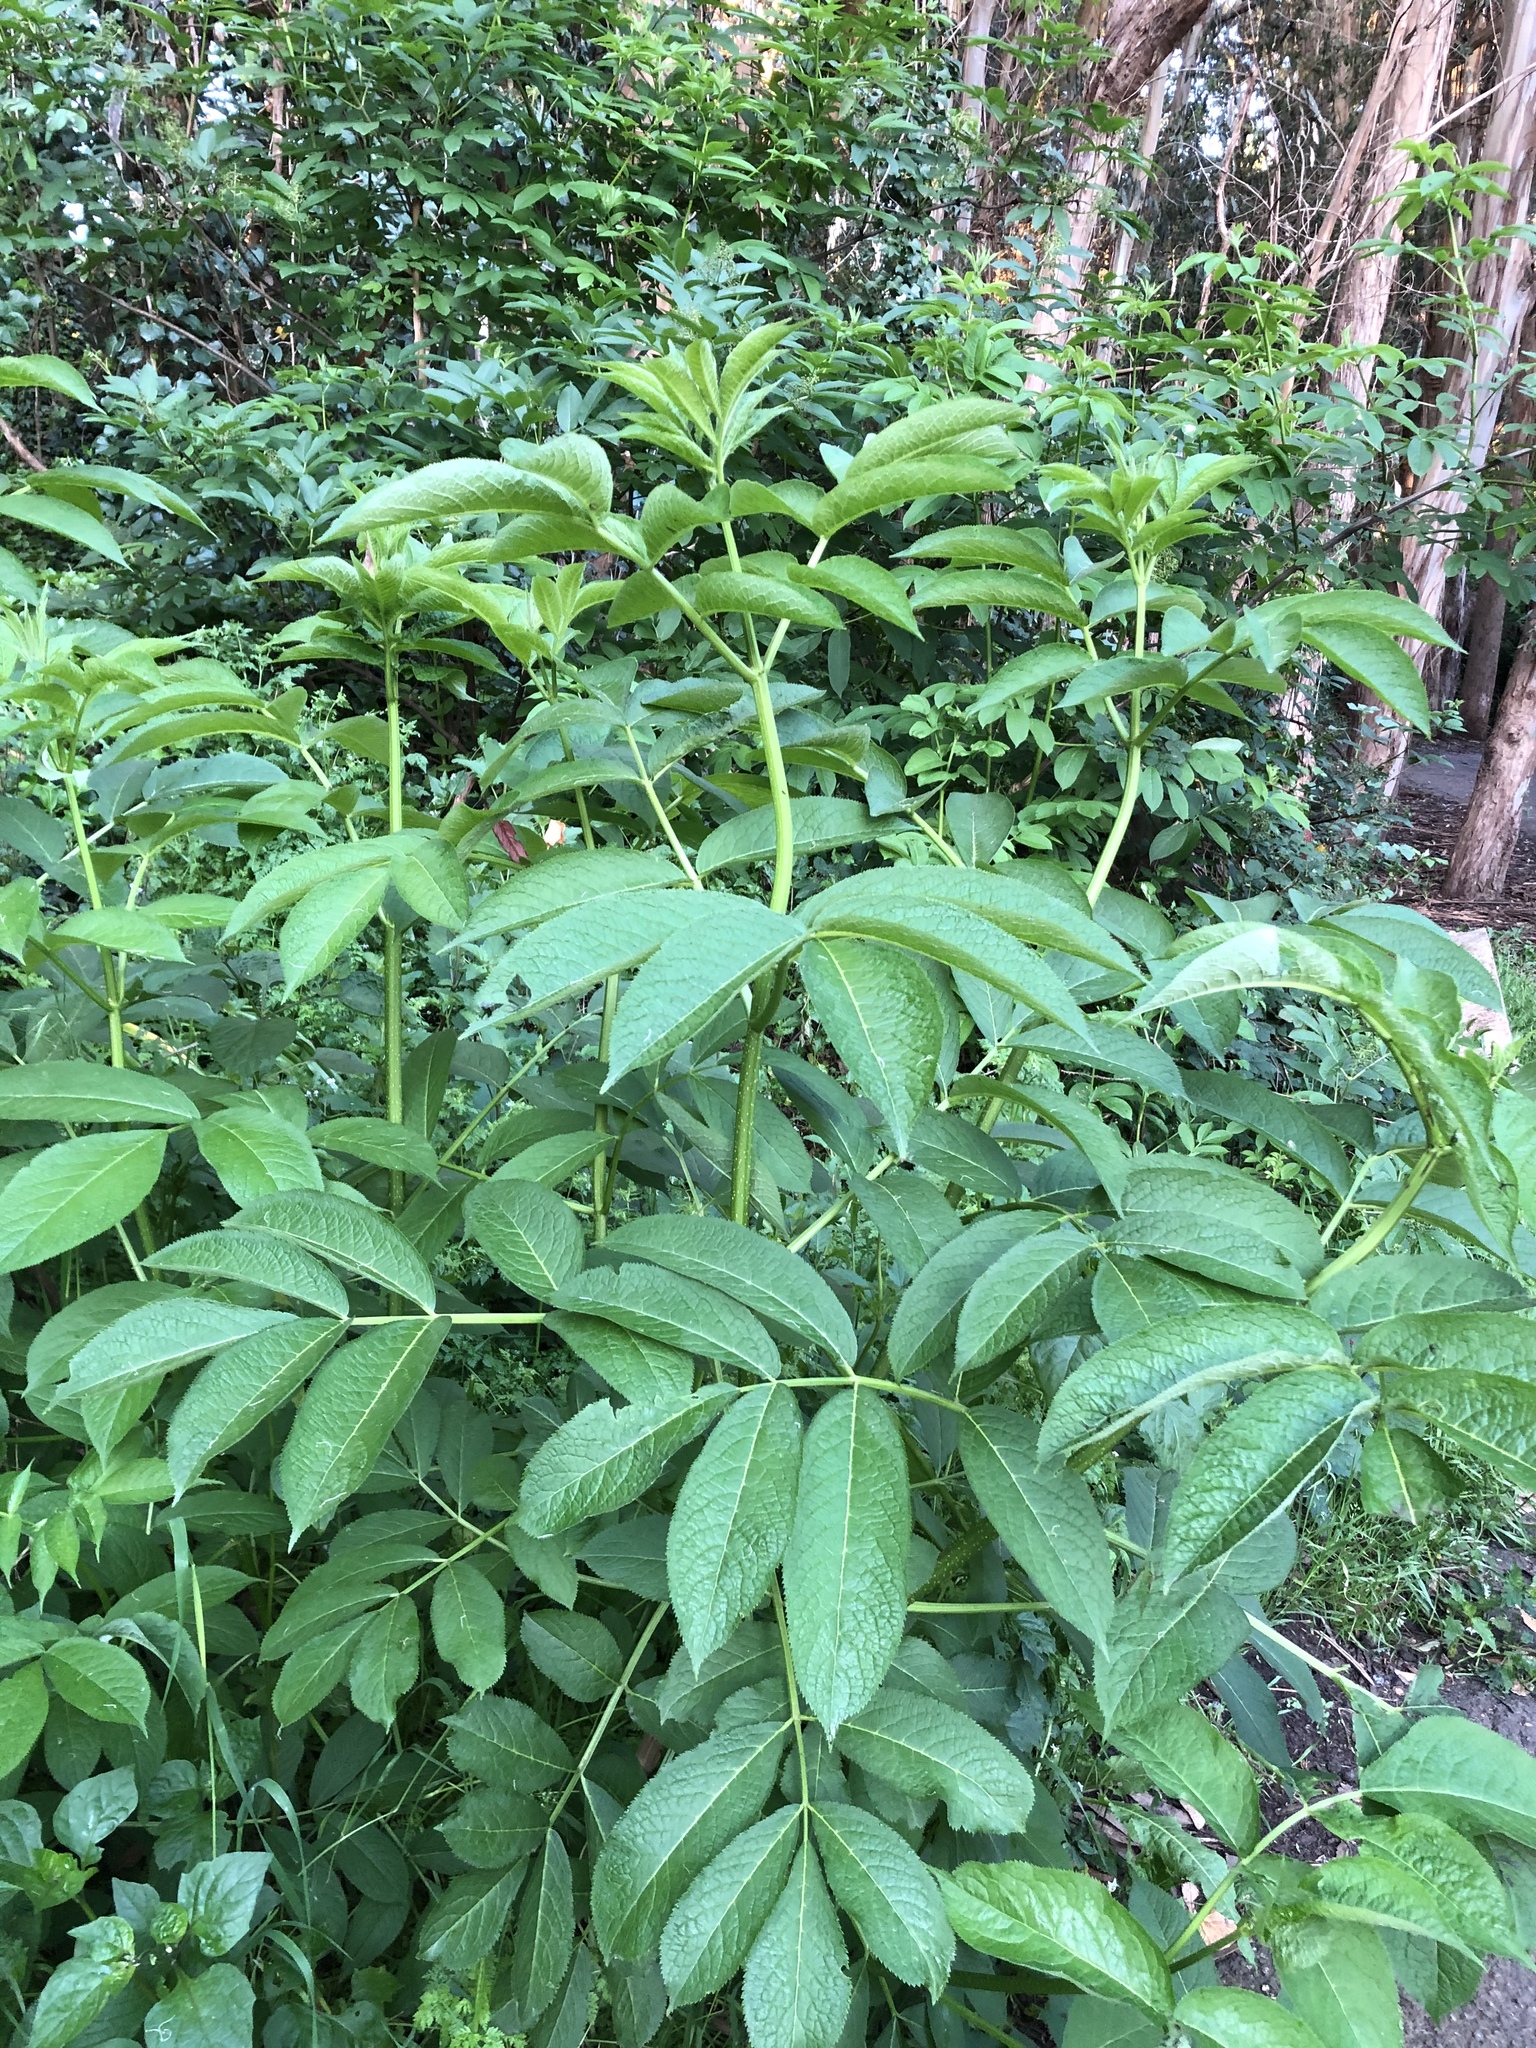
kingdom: Plantae
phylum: Tracheophyta
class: Magnoliopsida
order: Dipsacales
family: Viburnaceae
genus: Sambucus
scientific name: Sambucus racemosa
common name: Red-berried elder
